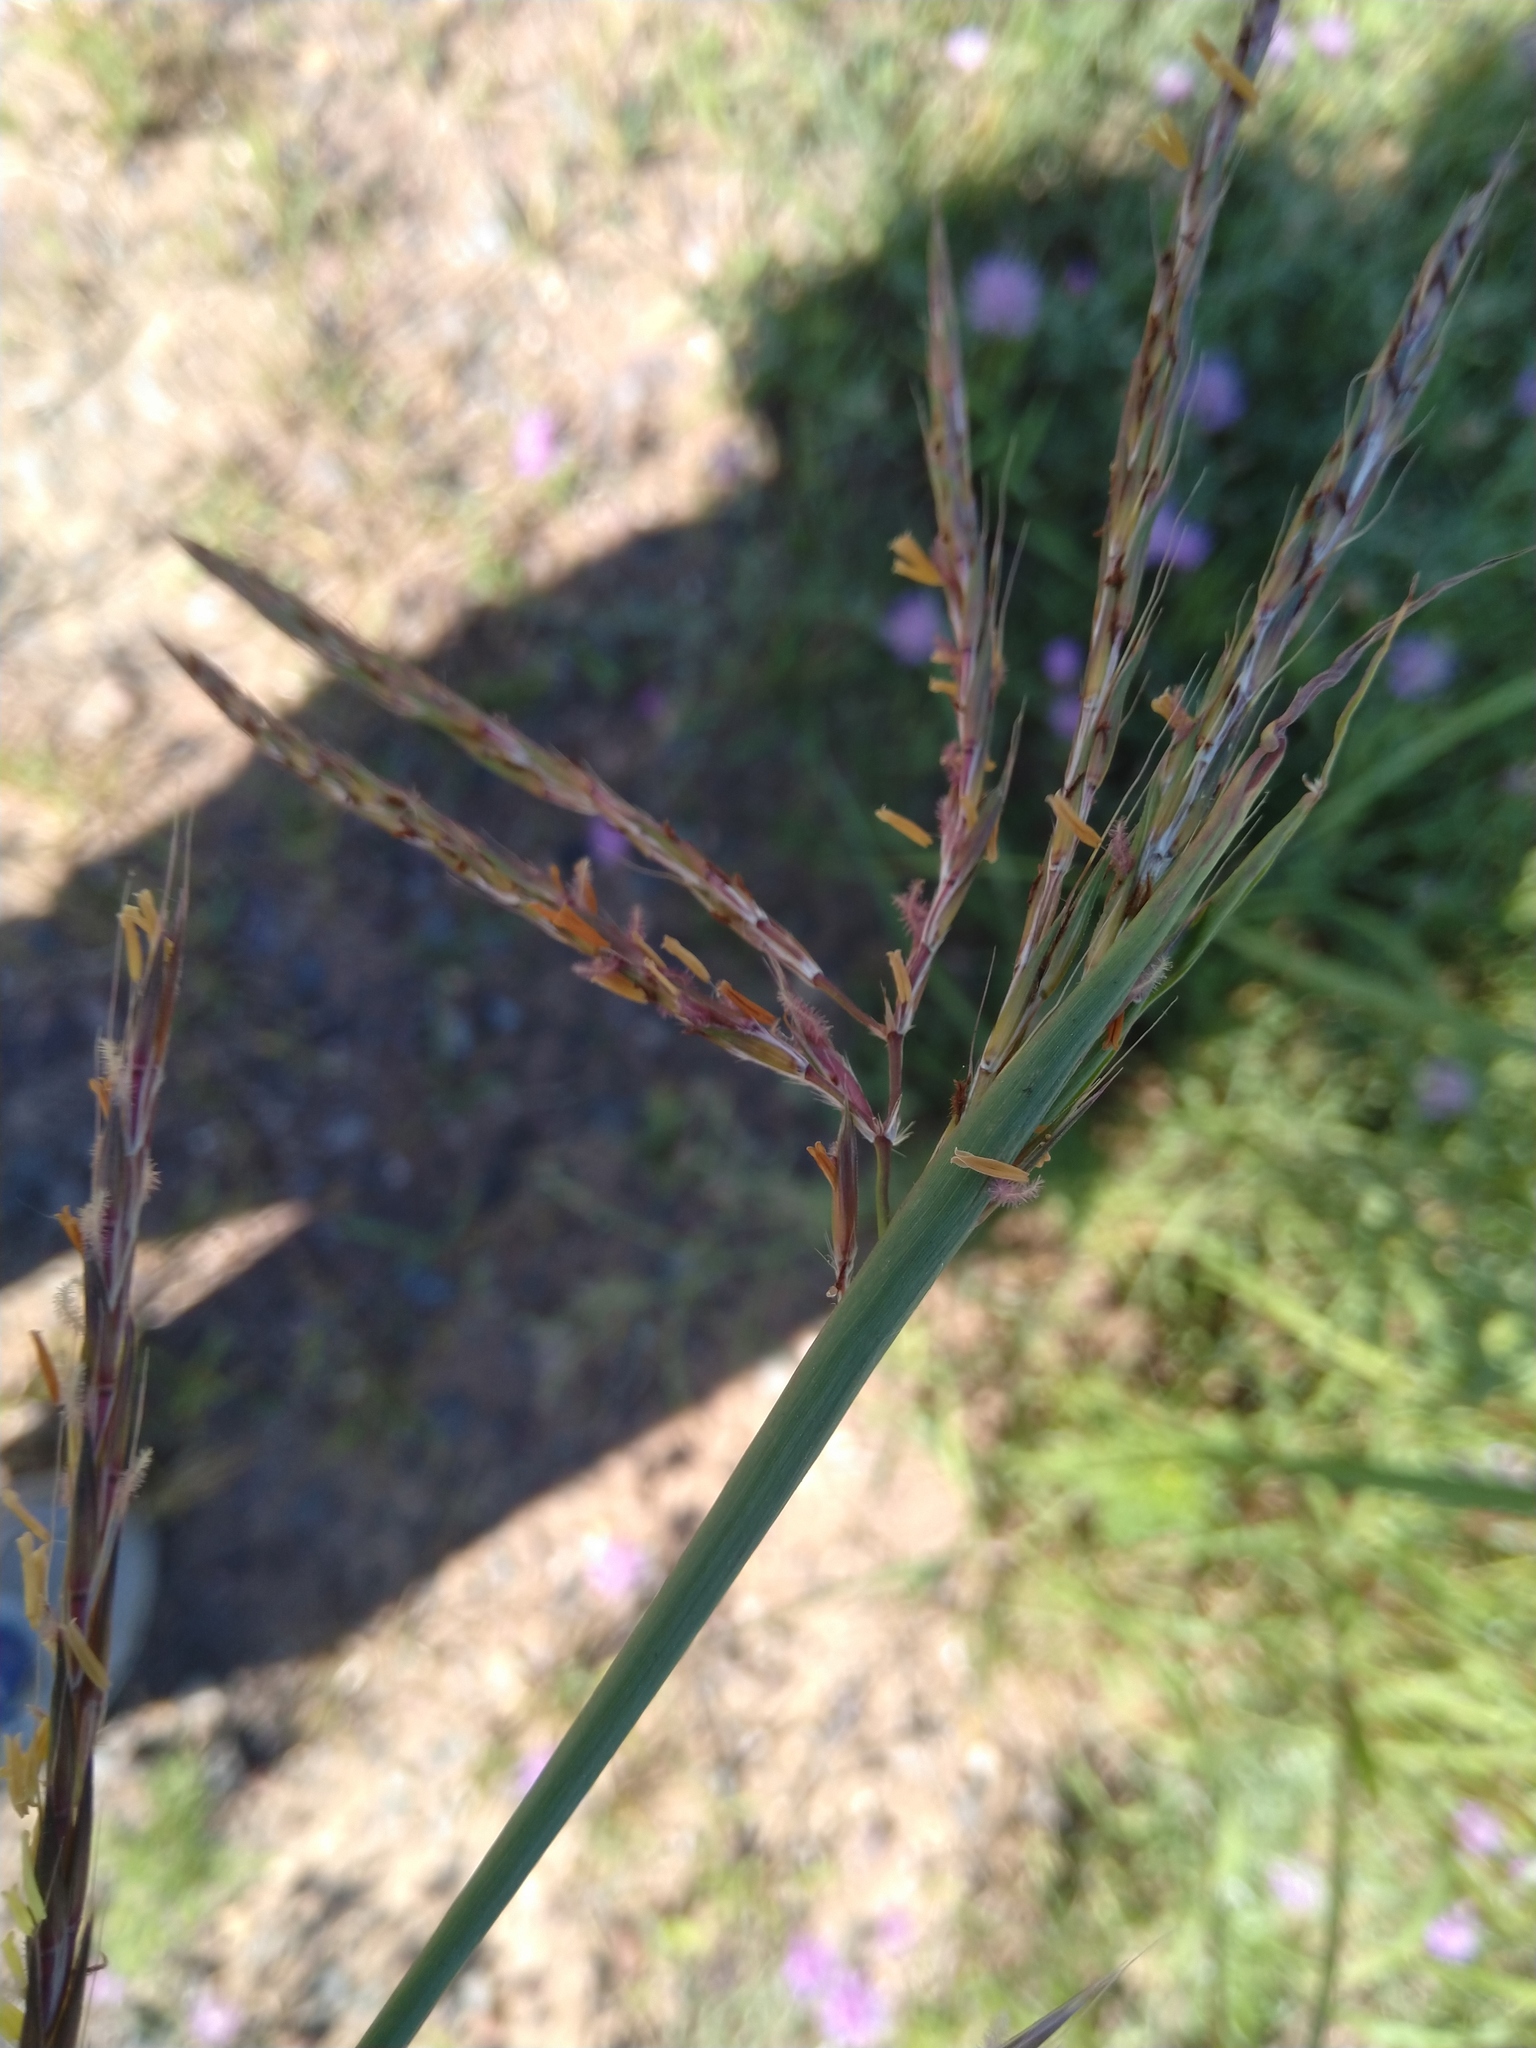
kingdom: Plantae
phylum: Tracheophyta
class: Liliopsida
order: Poales
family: Poaceae
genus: Andropogon
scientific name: Andropogon gerardi
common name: Big bluestem
